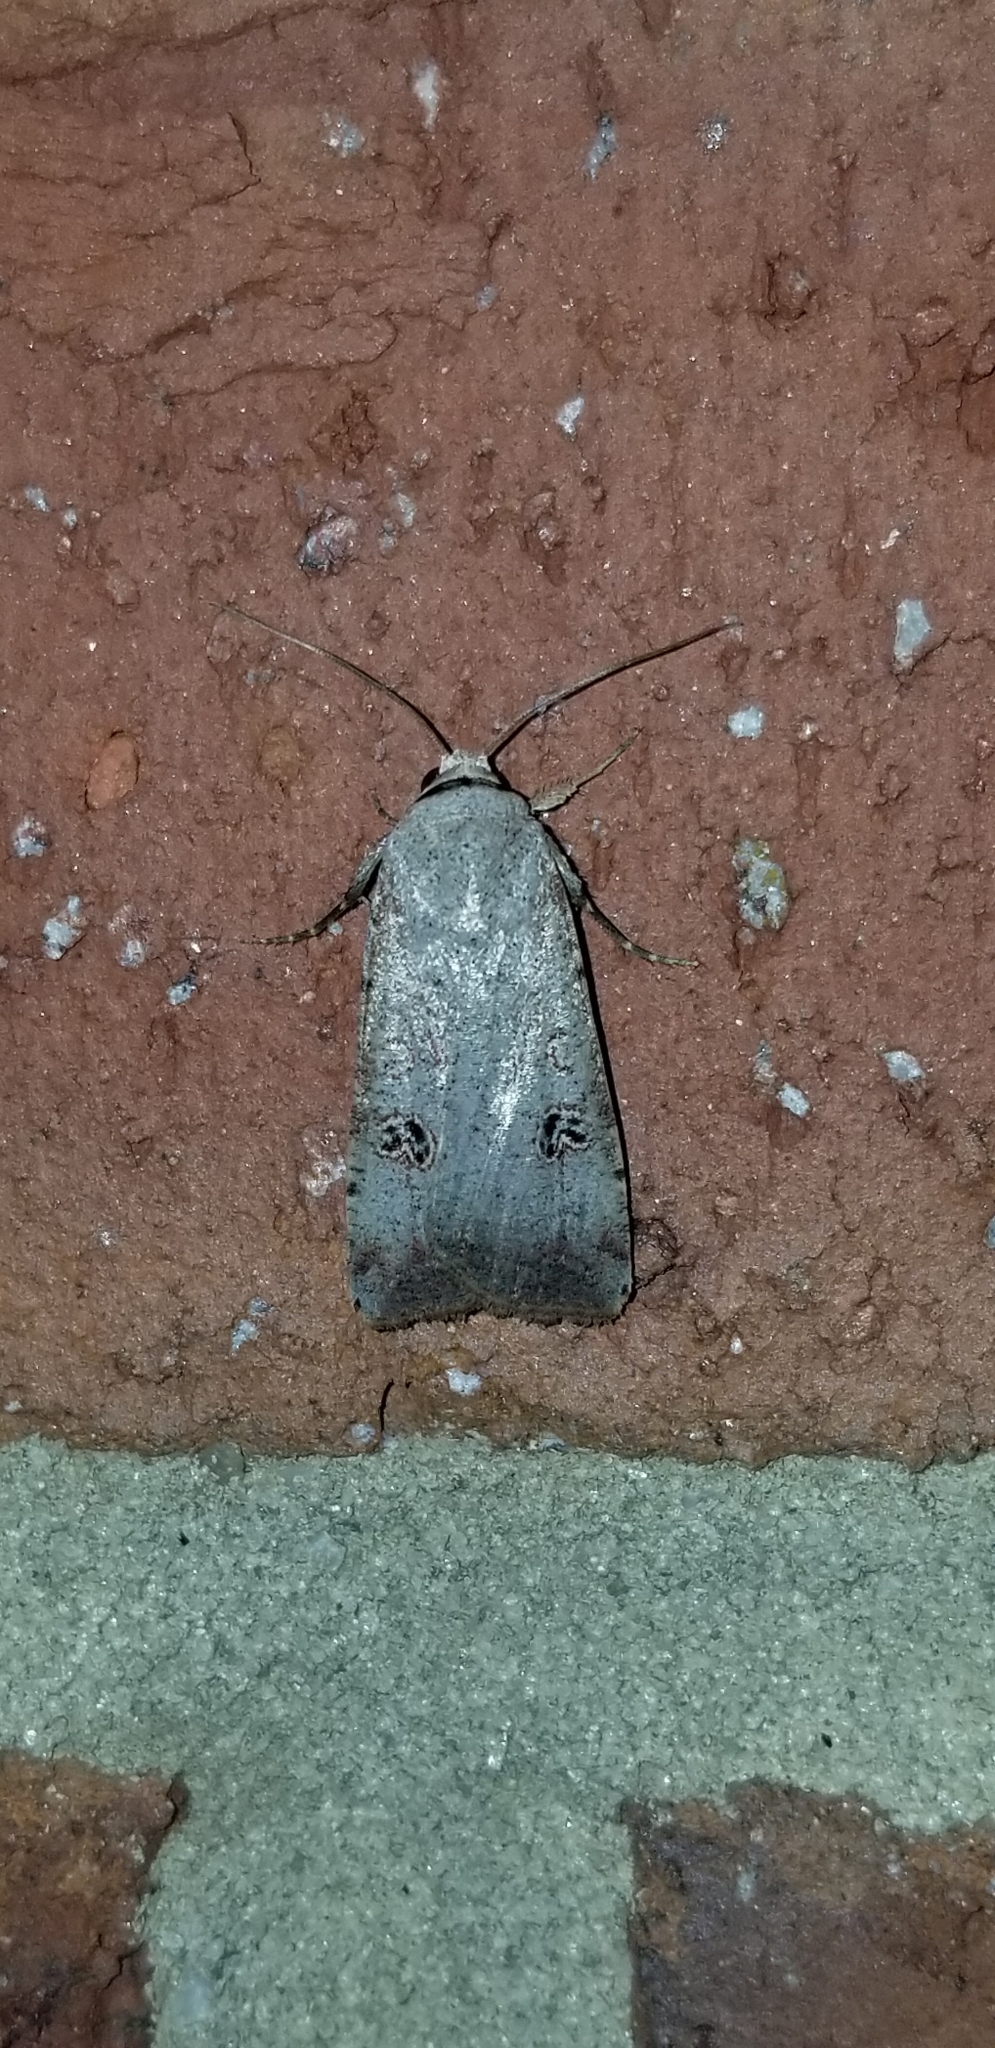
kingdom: Animalia
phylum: Arthropoda
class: Insecta
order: Lepidoptera
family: Noctuidae
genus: Anicla
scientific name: Anicla infecta
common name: Green cutworm
